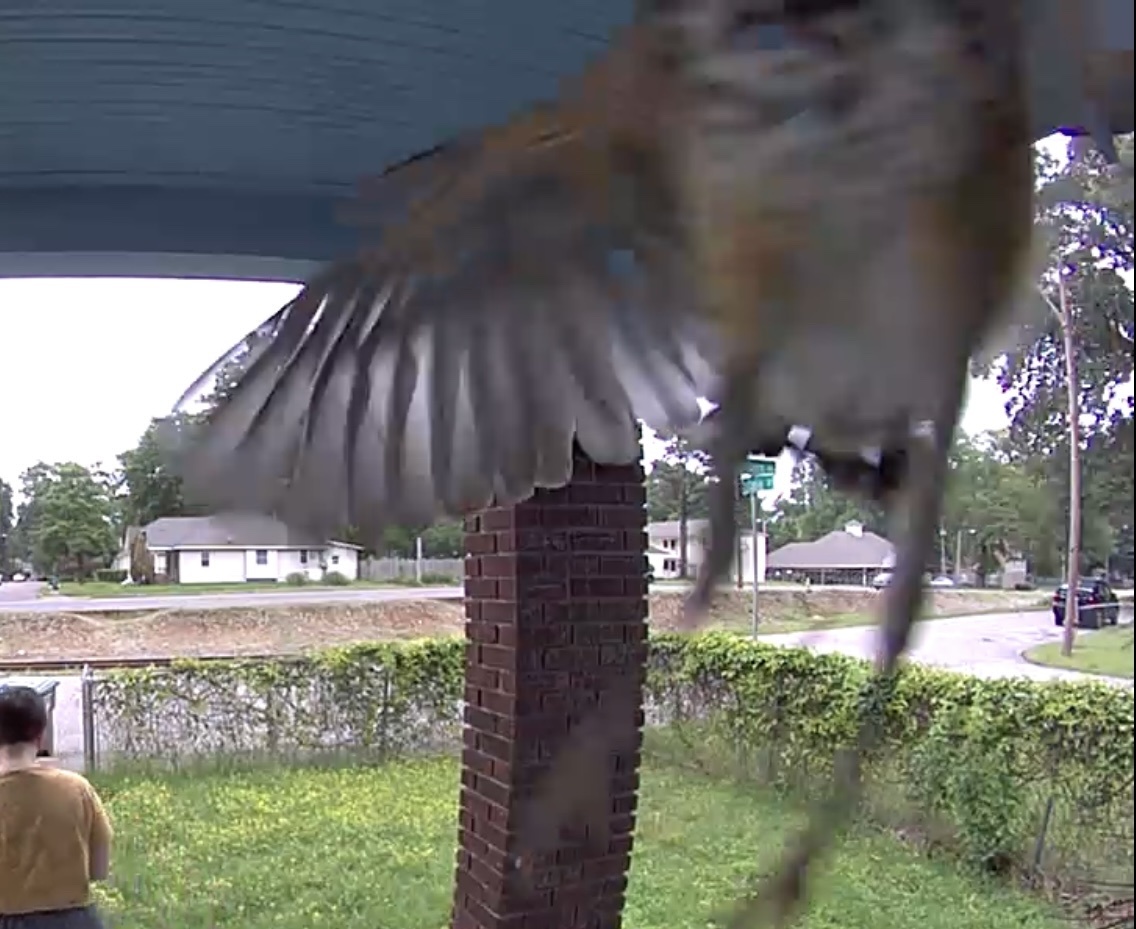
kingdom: Animalia
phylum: Chordata
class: Aves
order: Passeriformes
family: Turdidae
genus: Turdus
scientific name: Turdus migratorius
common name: American robin
